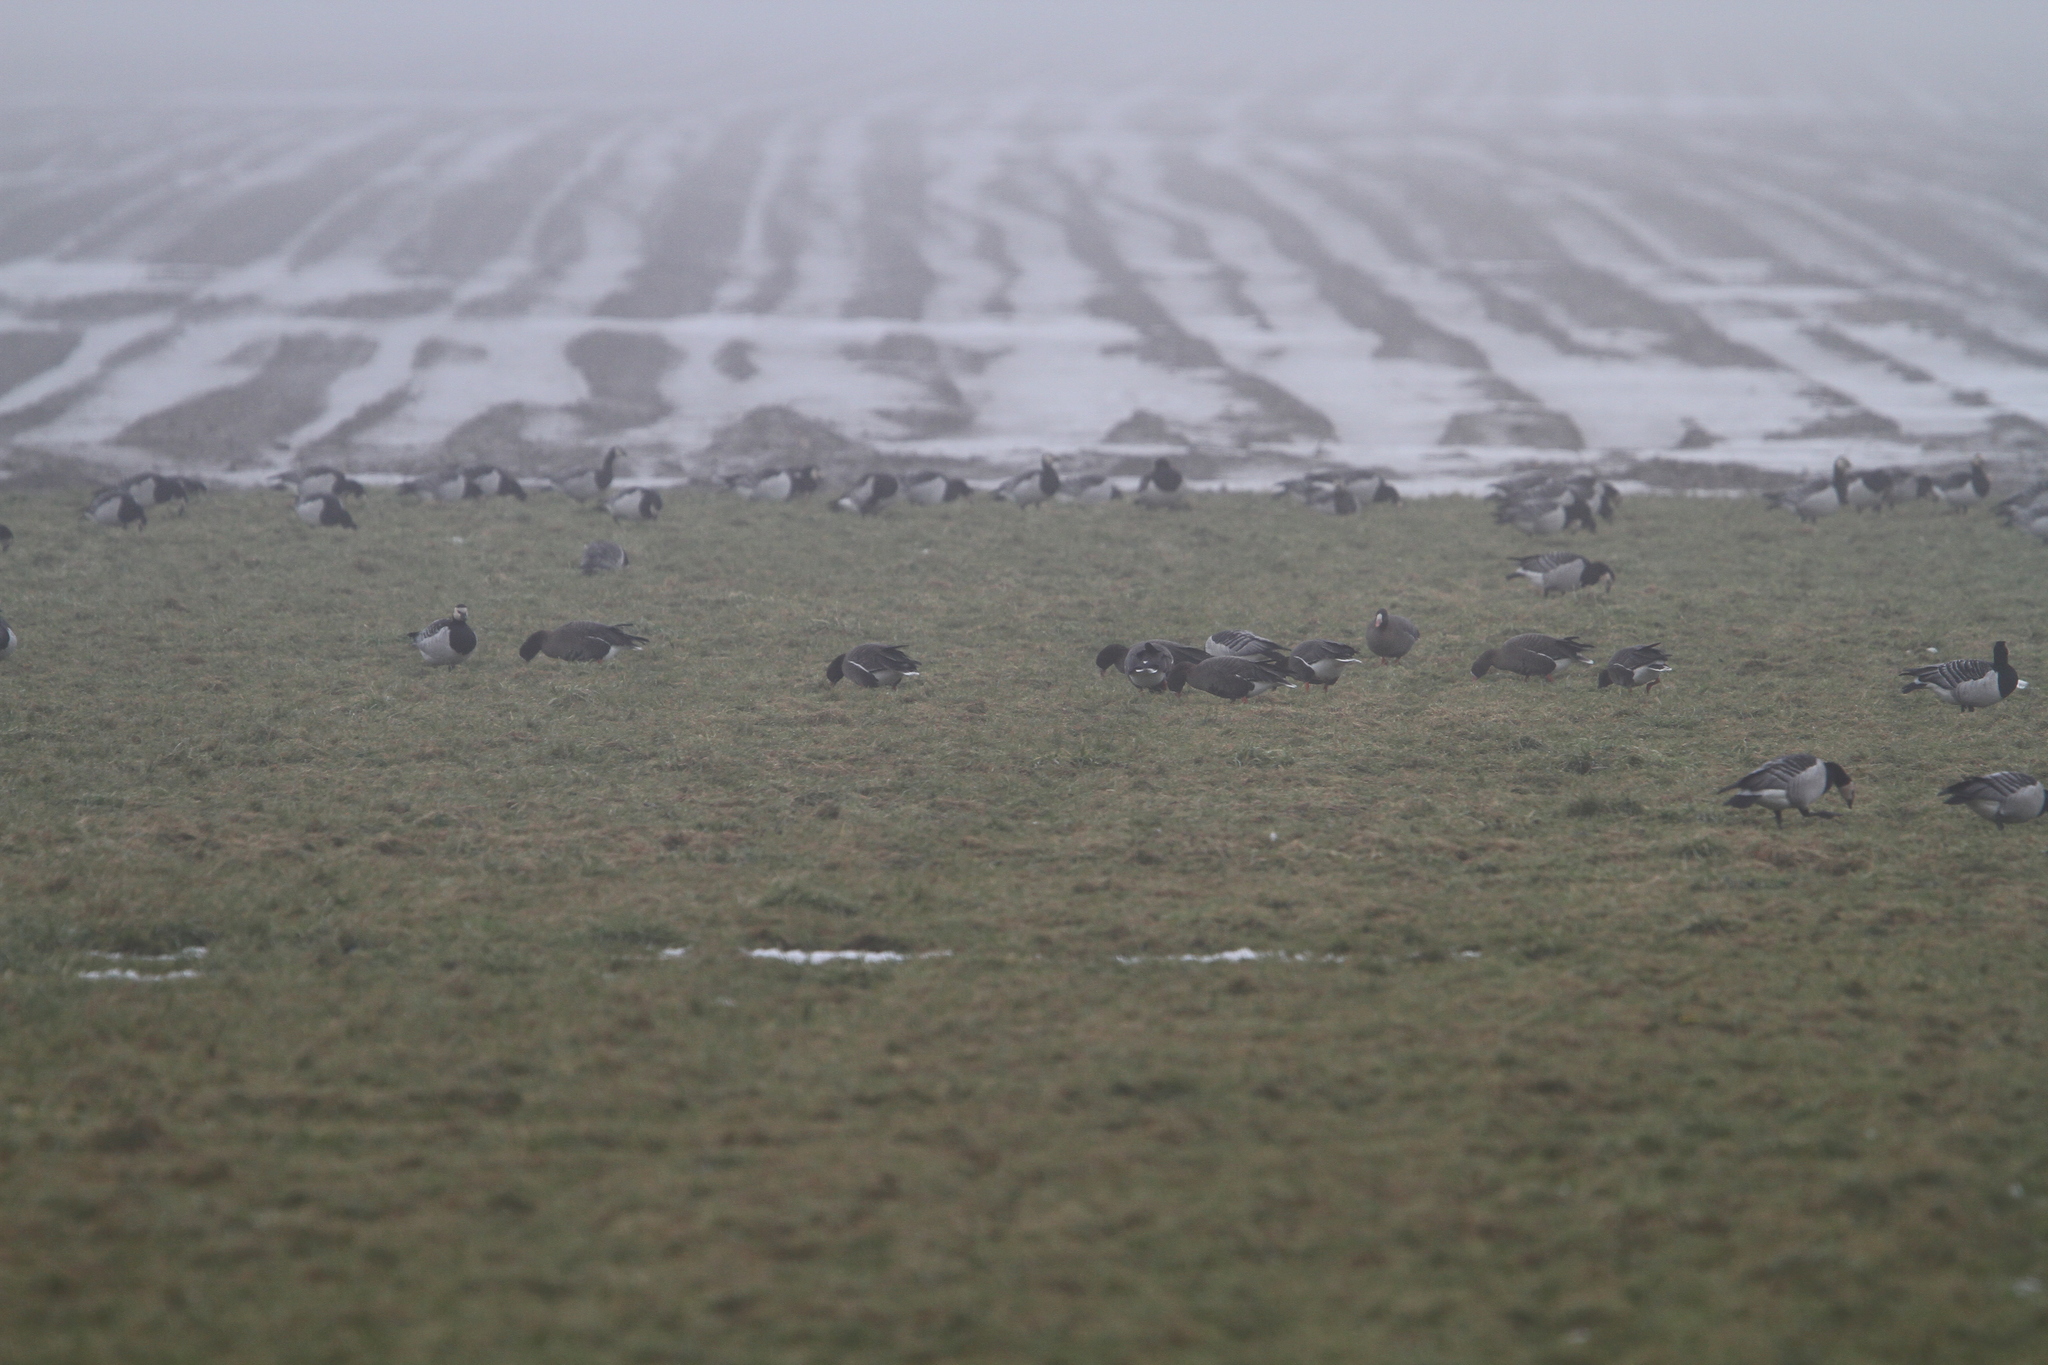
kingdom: Animalia
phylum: Chordata
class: Aves
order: Anseriformes
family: Anatidae
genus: Anser
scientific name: Anser erythropus
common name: Lesser white-fronted goose
